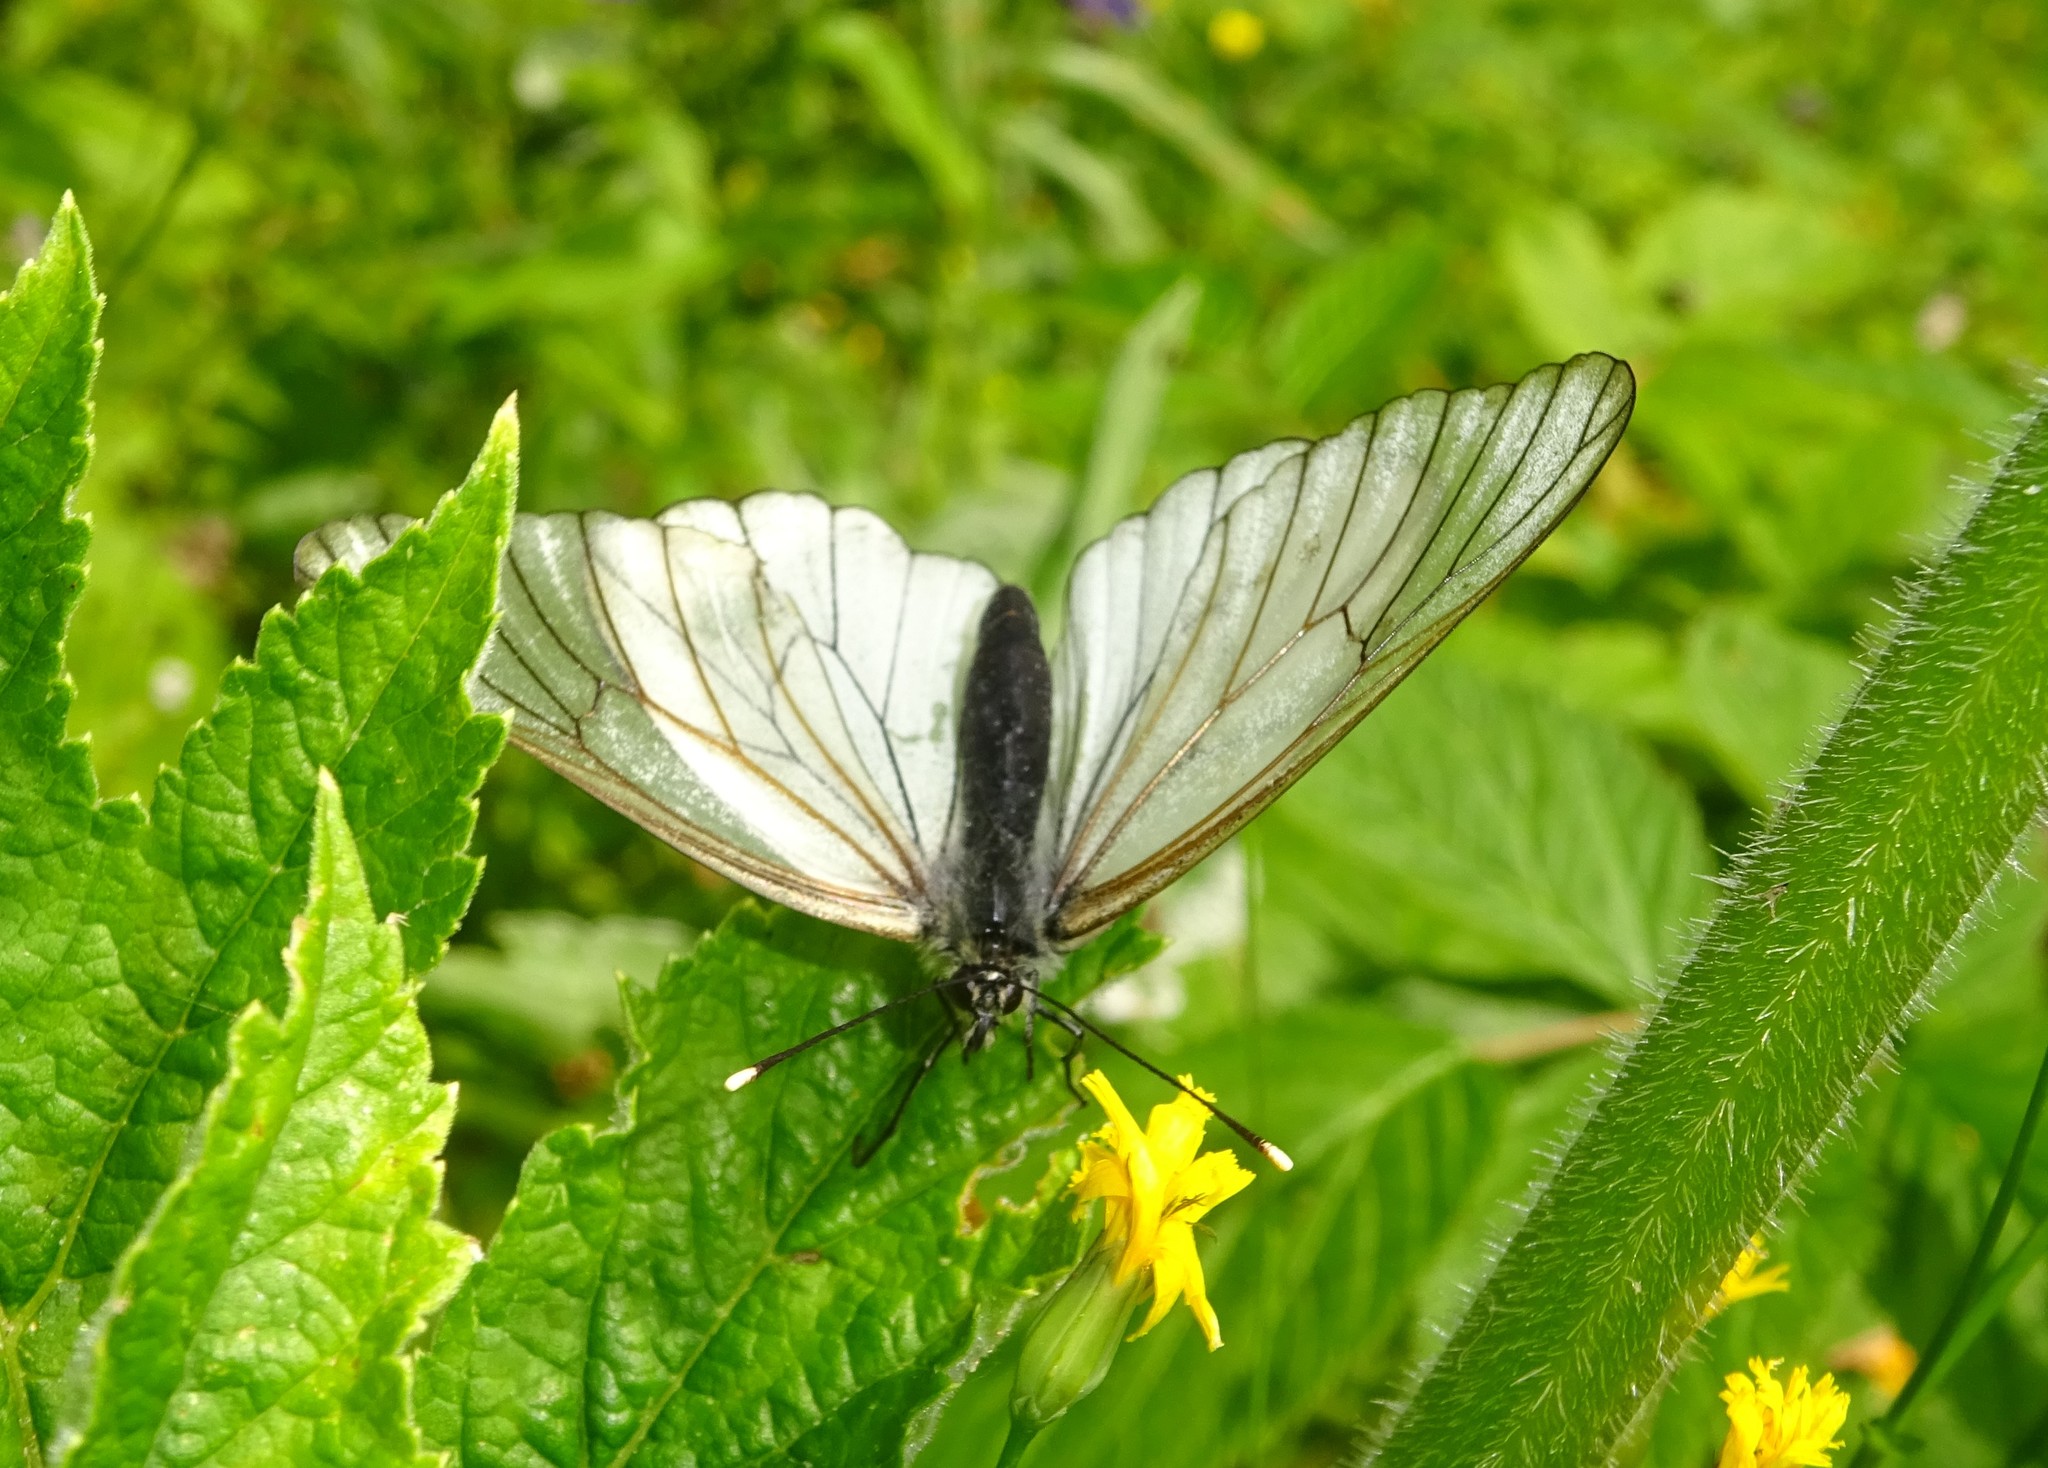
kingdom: Animalia
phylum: Arthropoda
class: Insecta
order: Lepidoptera
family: Pieridae
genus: Aporia
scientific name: Aporia crataegi
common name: Black-veined white
